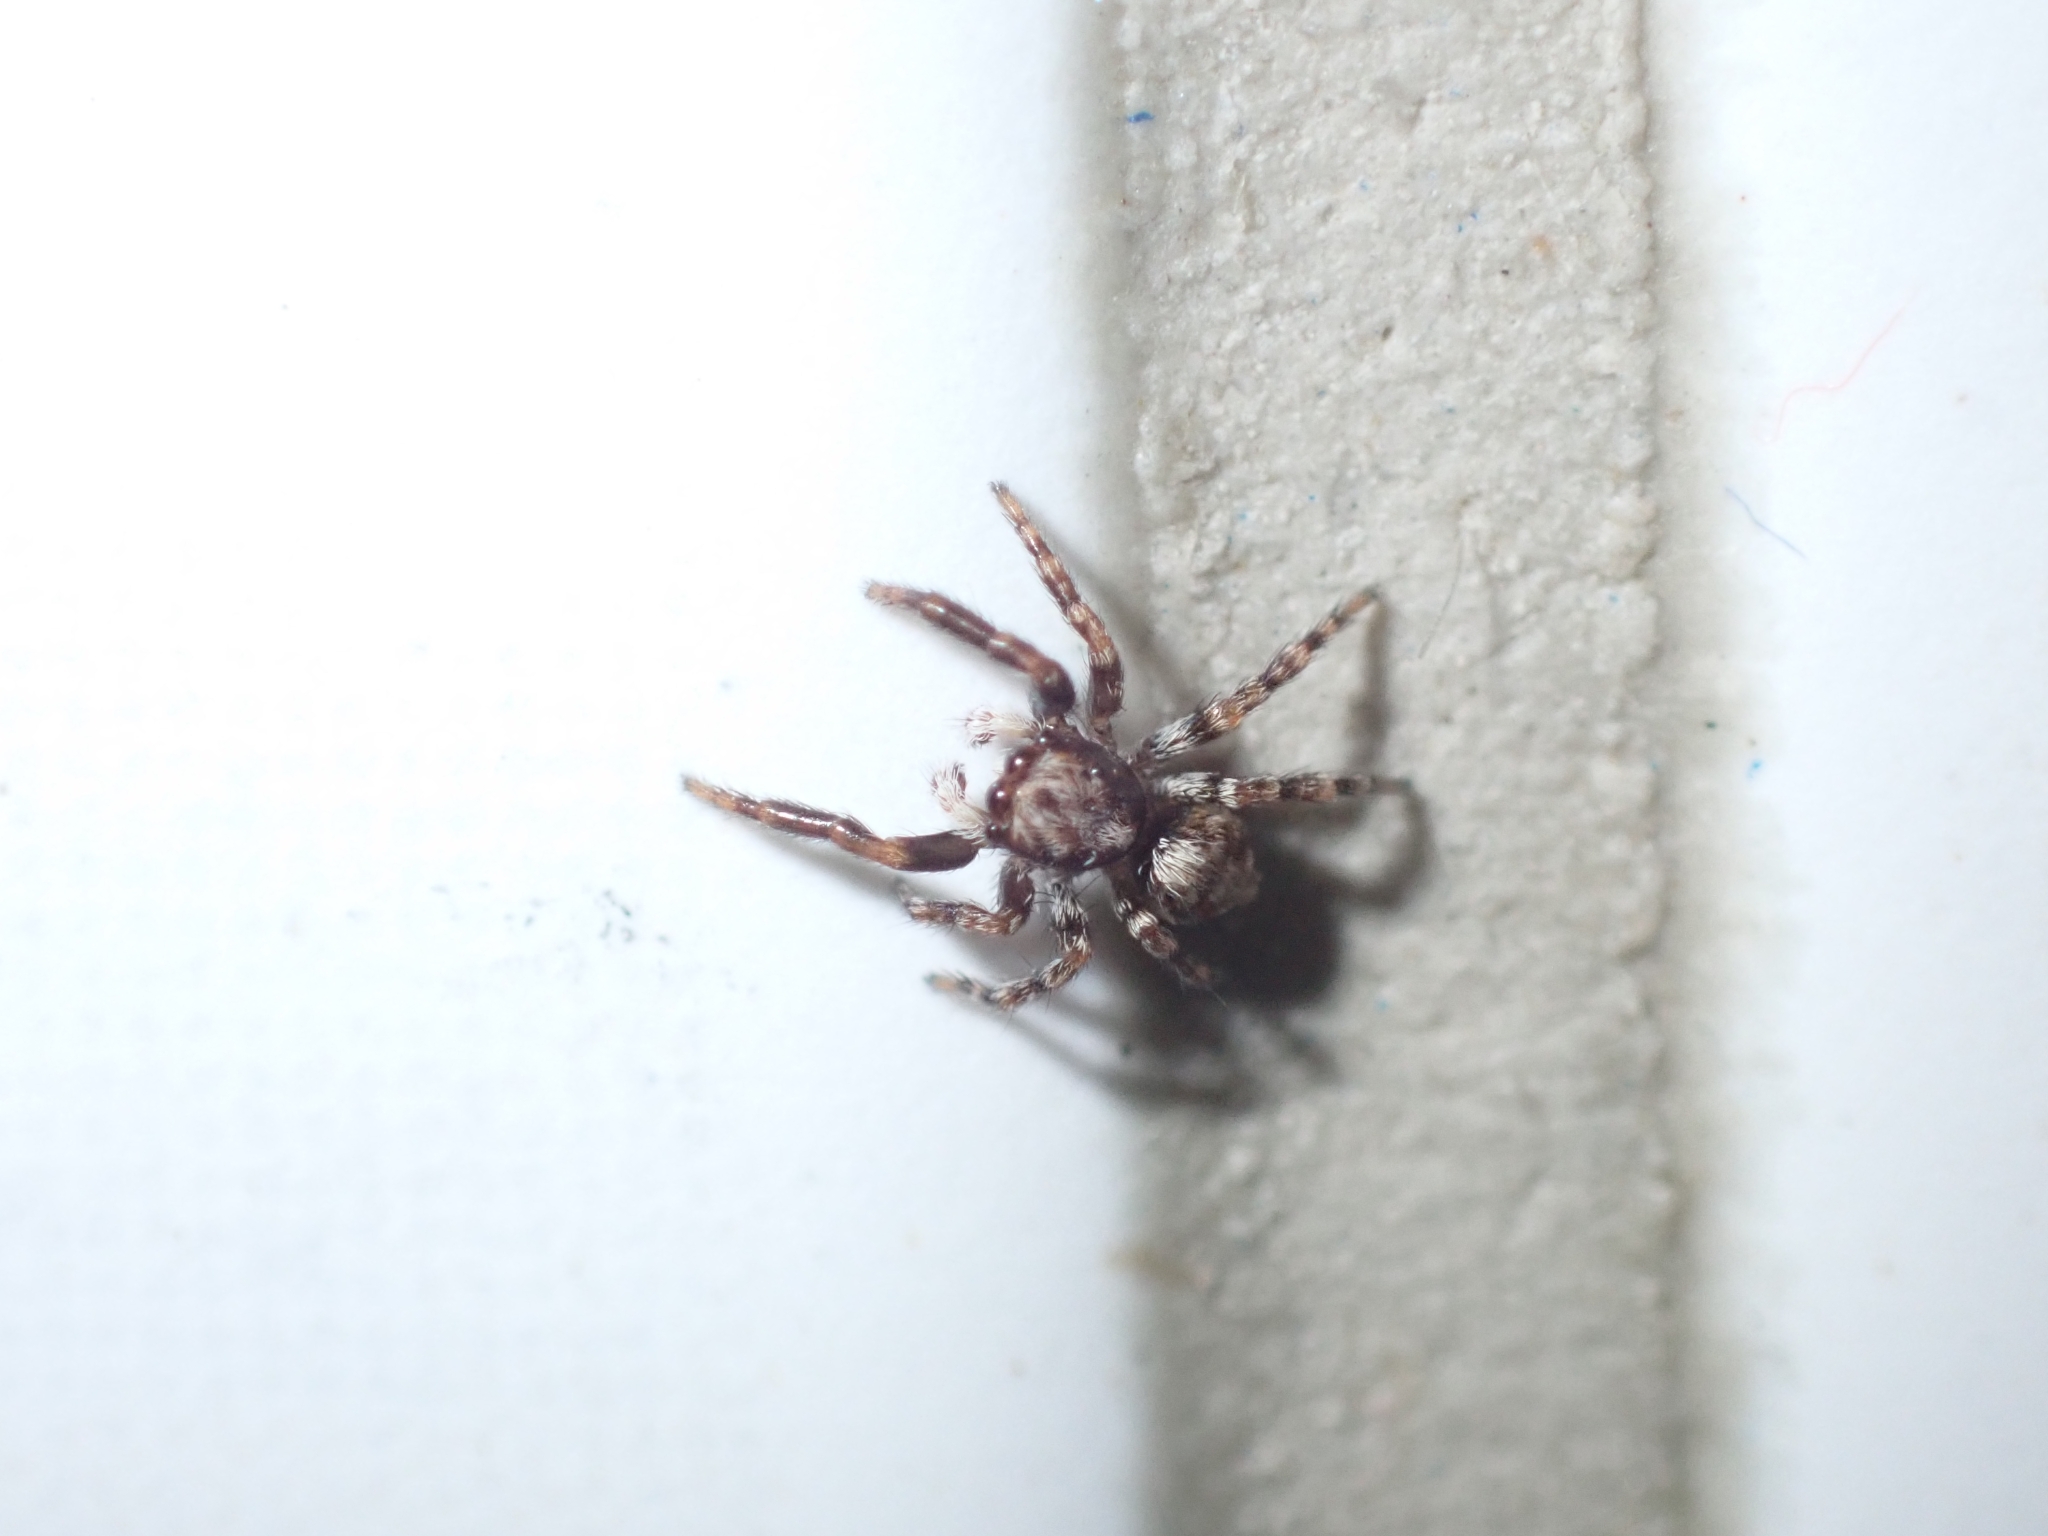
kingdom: Animalia
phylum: Arthropoda
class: Arachnida
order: Araneae
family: Salticidae
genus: Pseudeuophrys
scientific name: Pseudeuophrys lanigera
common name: Jumping spider
